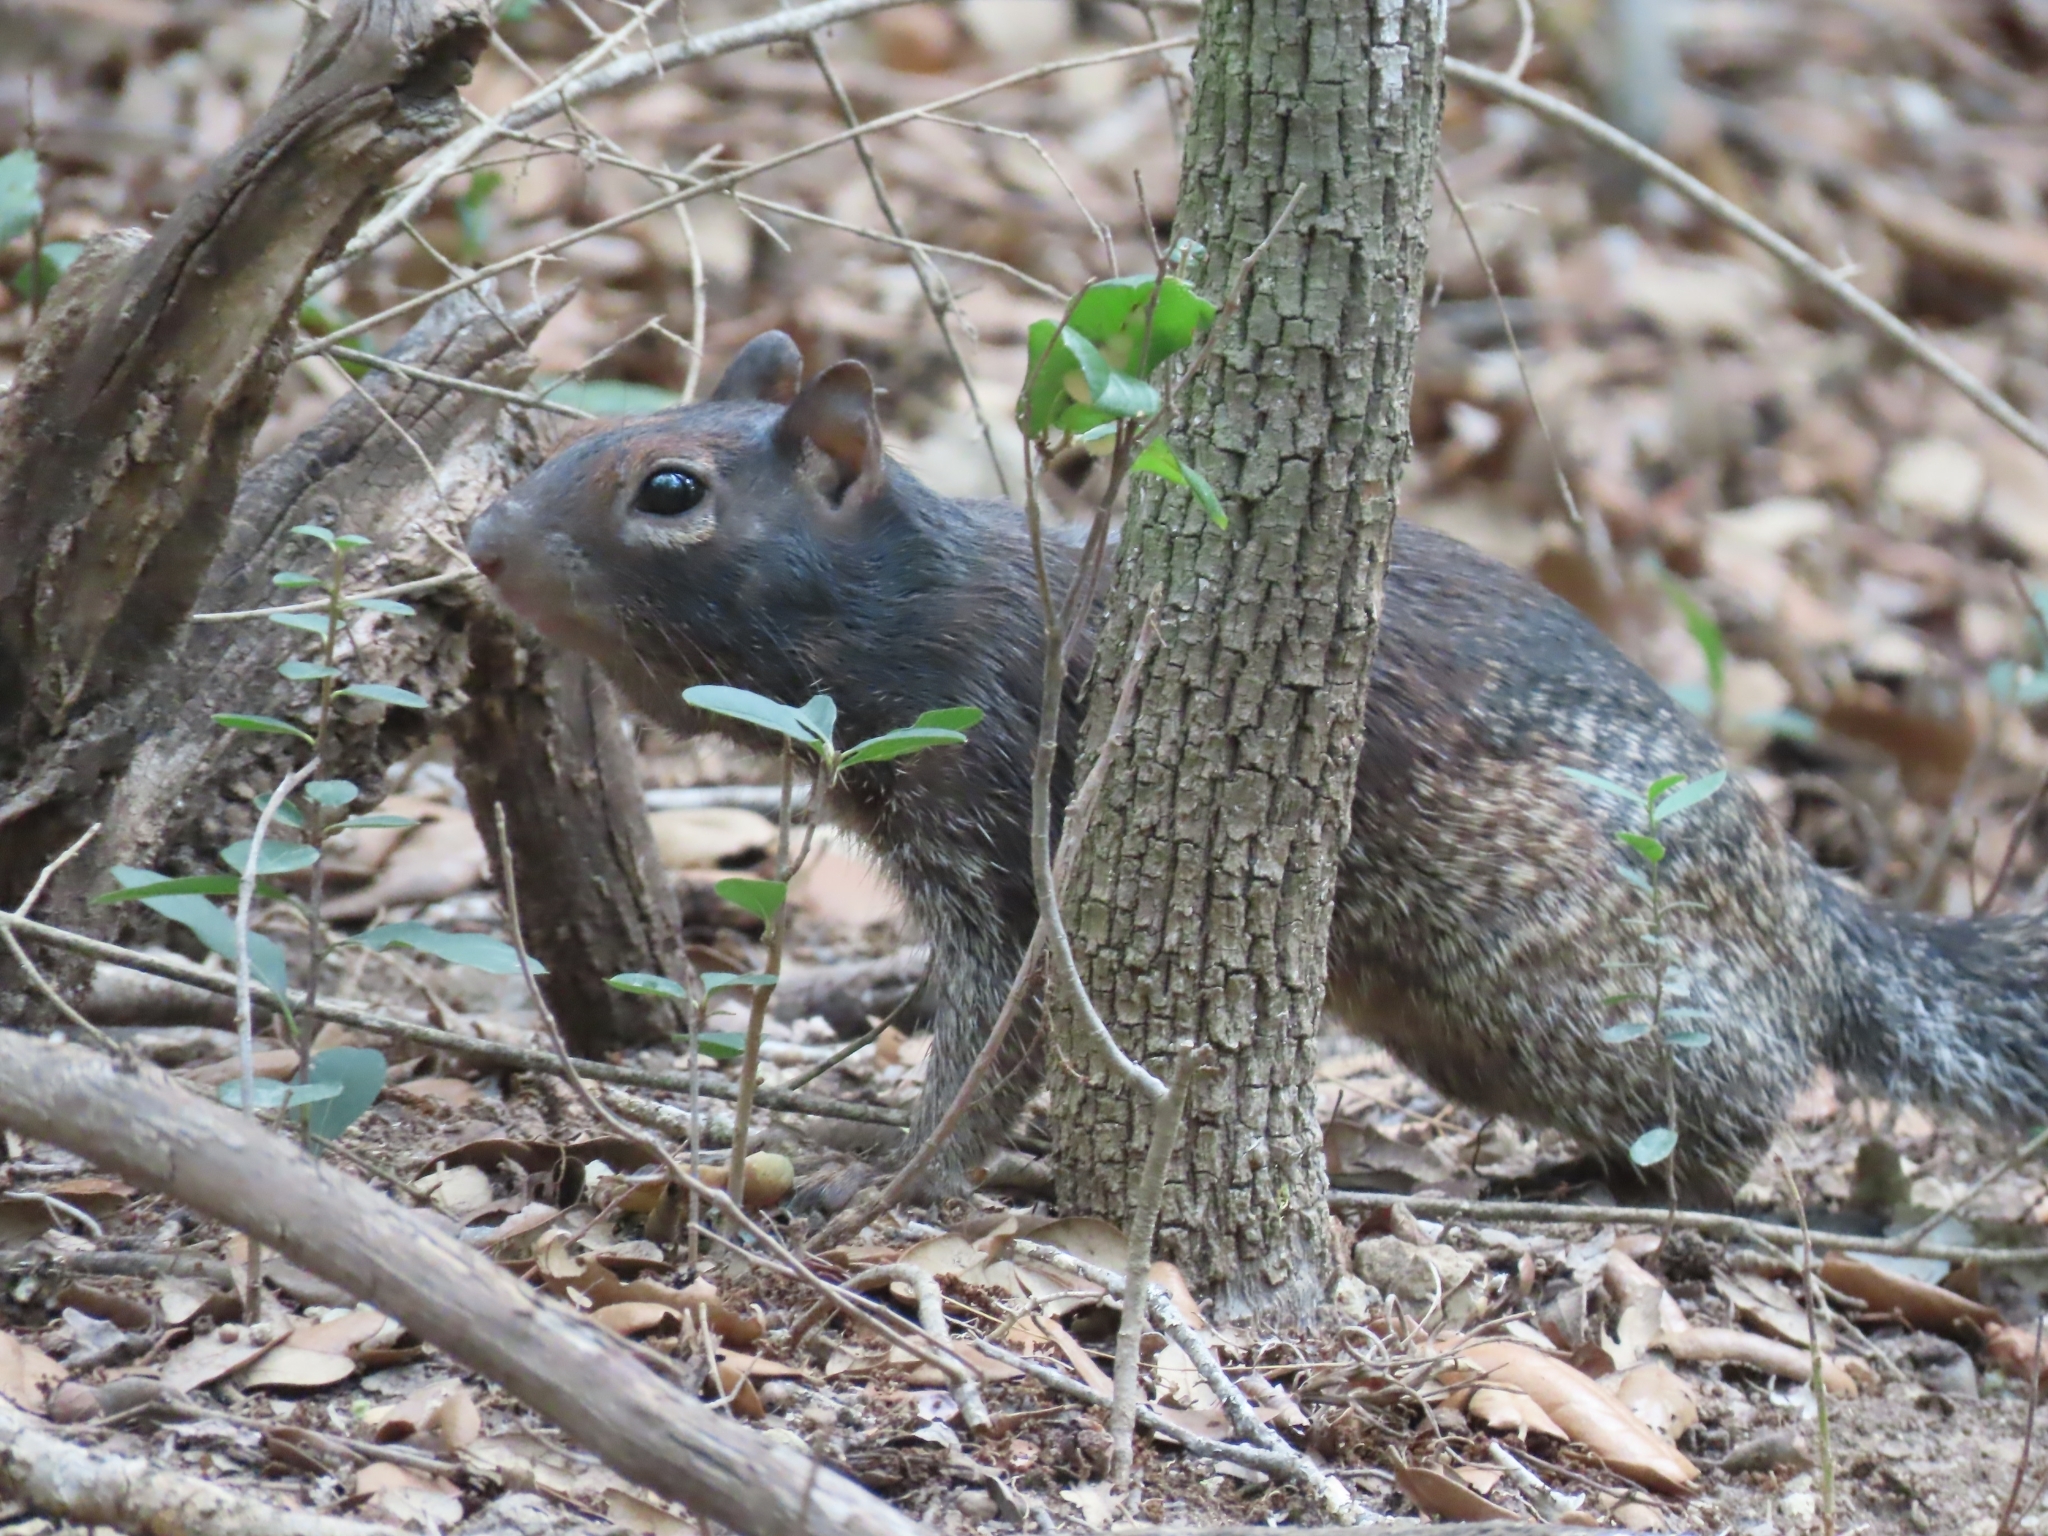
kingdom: Animalia
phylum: Chordata
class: Mammalia
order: Rodentia
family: Sciuridae
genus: Otospermophilus
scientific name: Otospermophilus variegatus
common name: Rock squirrel
